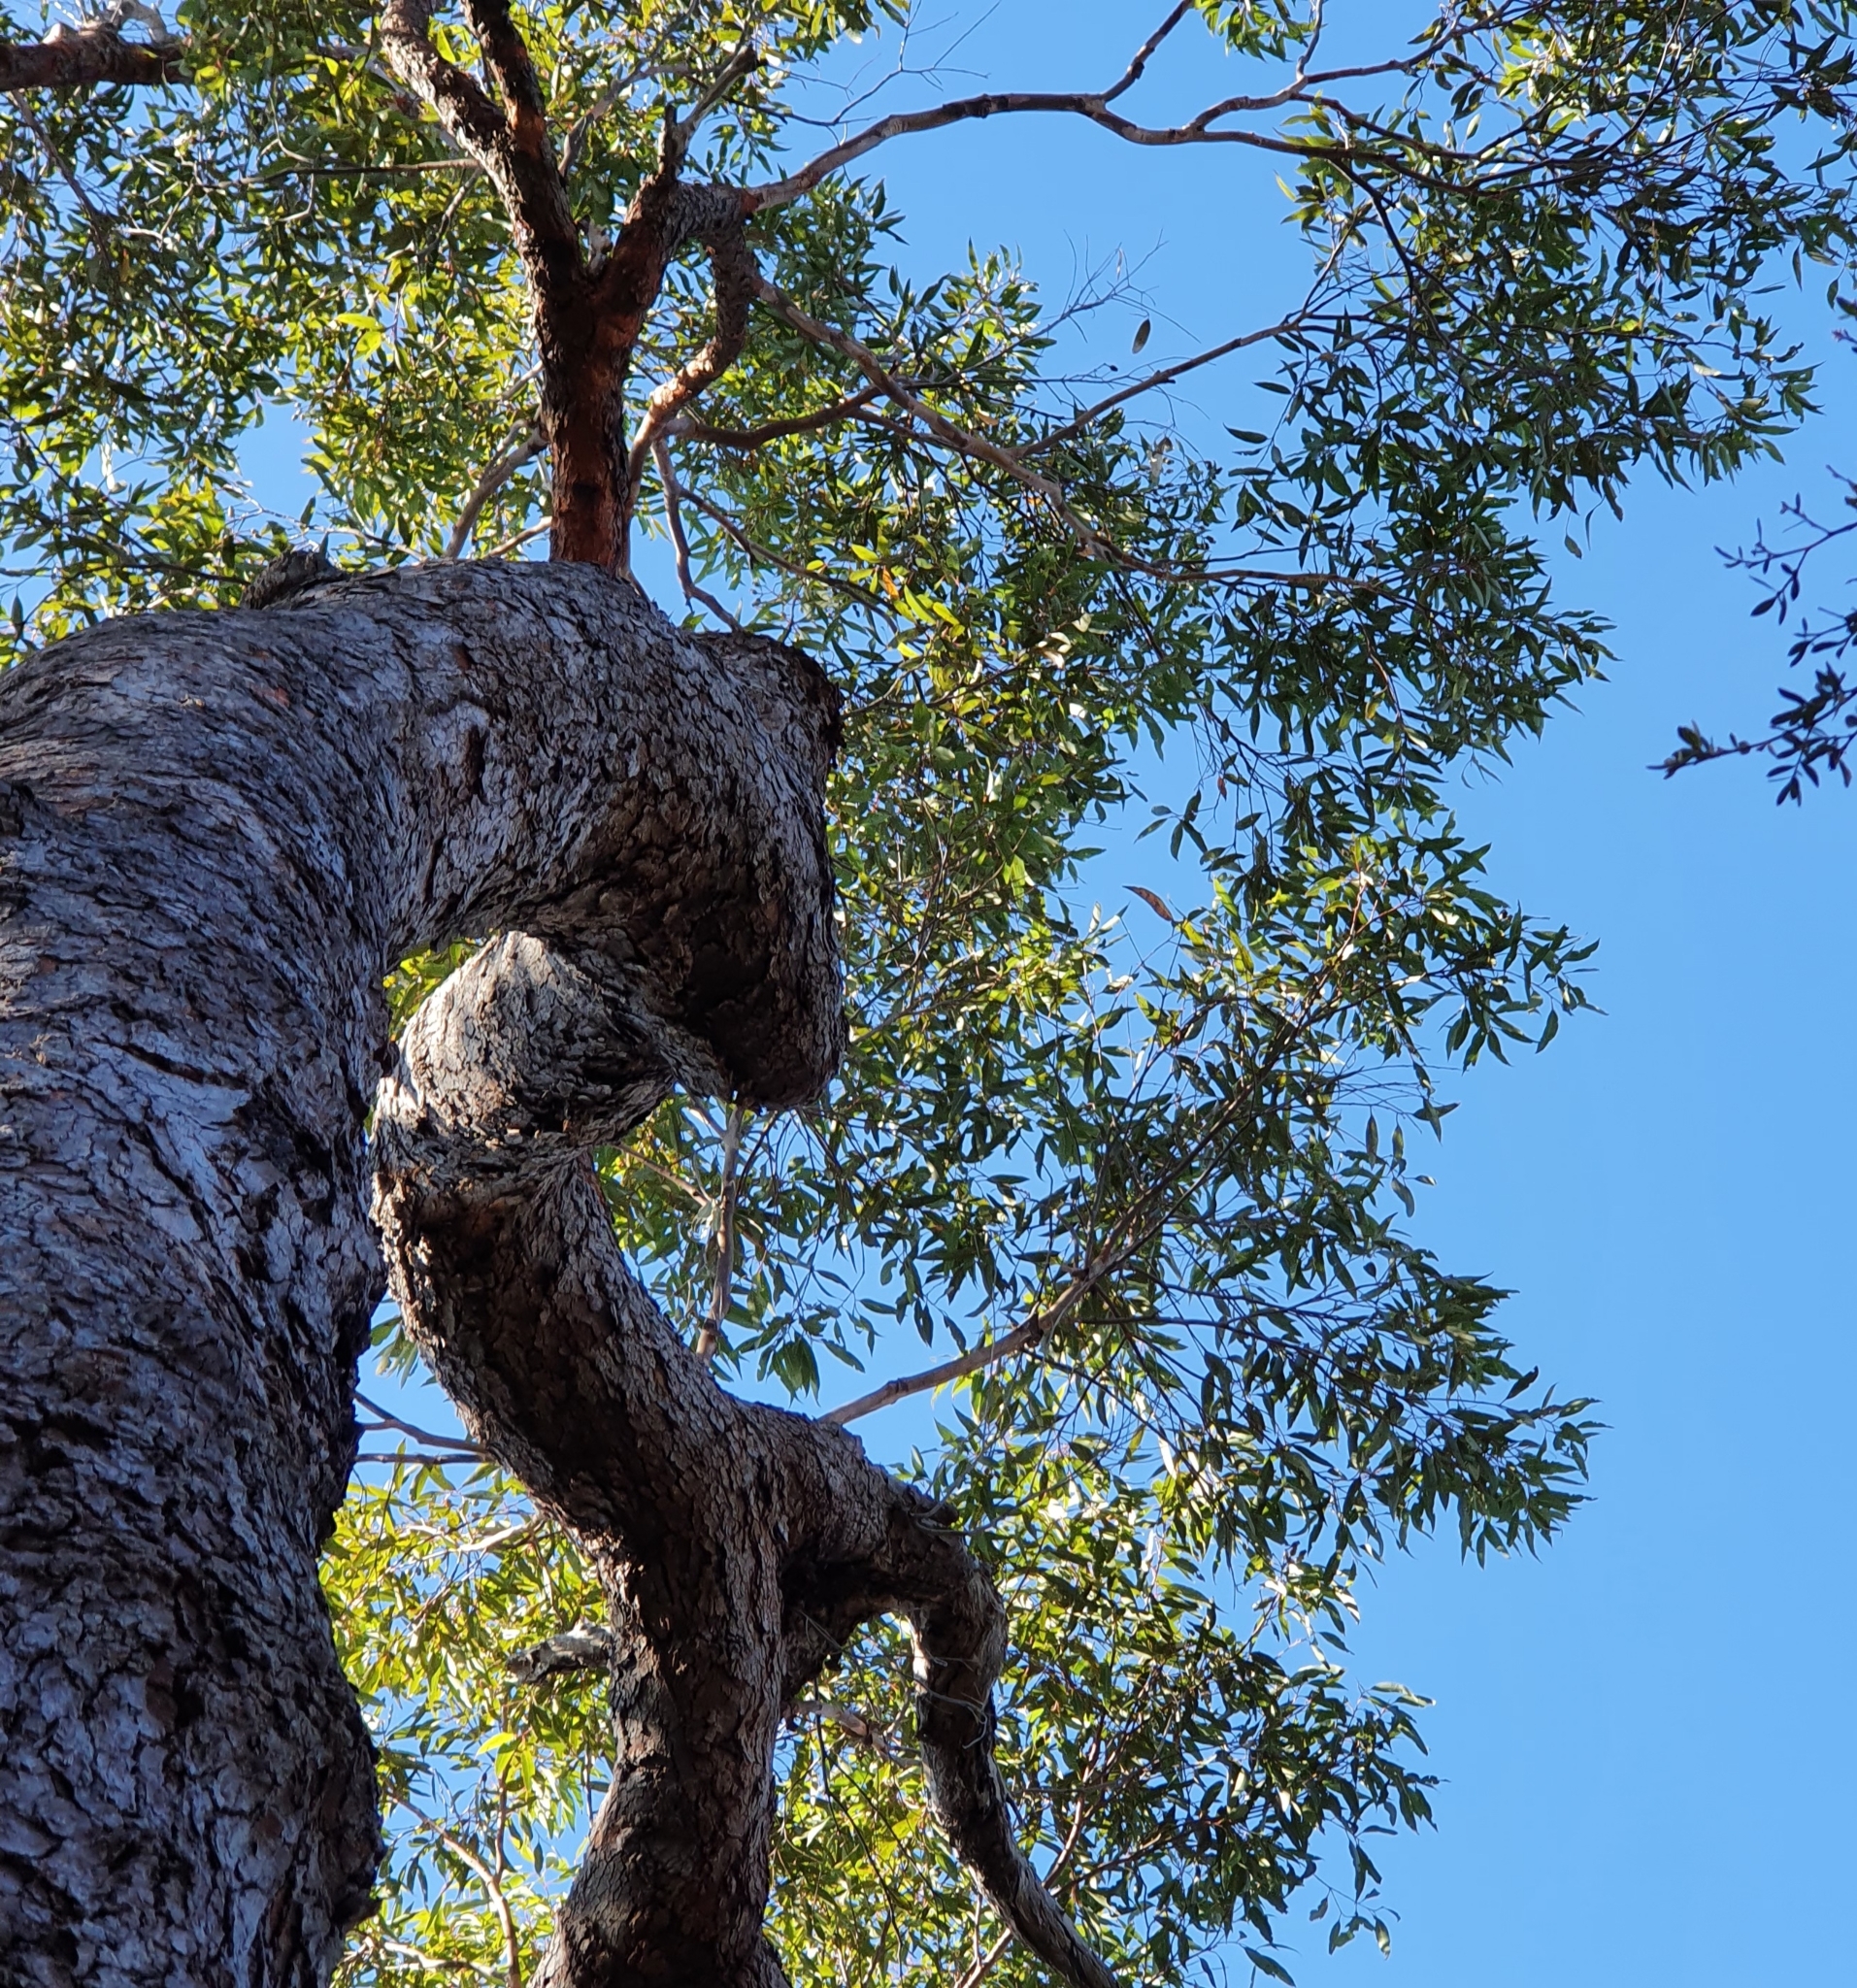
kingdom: Plantae
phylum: Tracheophyta
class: Magnoliopsida
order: Myrtales
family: Myrtaceae
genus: Corymbia
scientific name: Corymbia gummifera
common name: Red bloodwood
